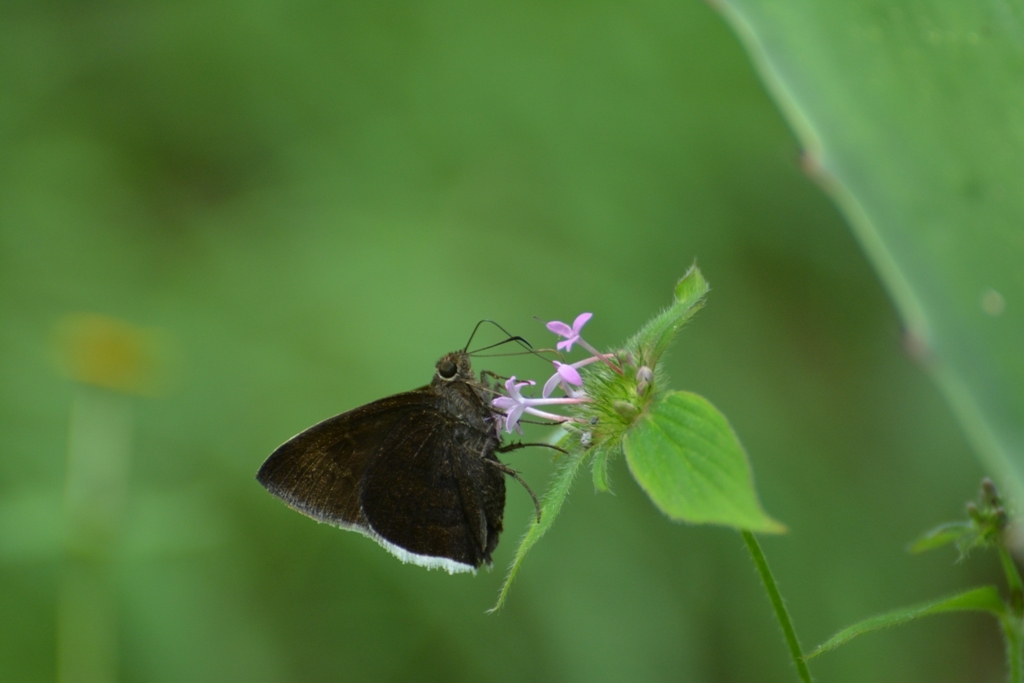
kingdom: Animalia
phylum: Arthropoda
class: Insecta
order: Lepidoptera
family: Hesperiidae
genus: Achalarus
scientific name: Achalarus Murgaria albociliatus
